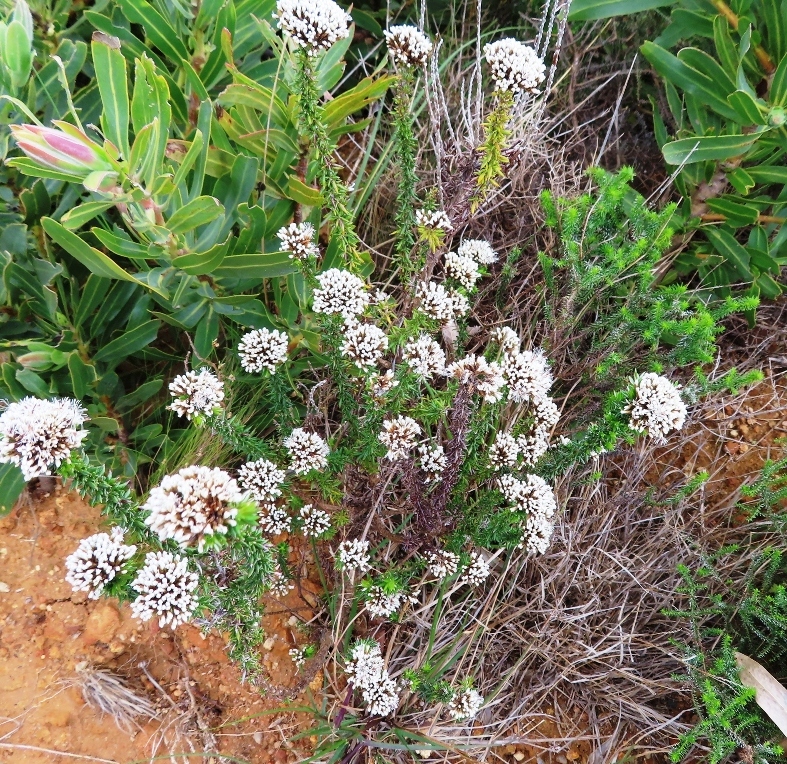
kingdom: Plantae
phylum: Tracheophyta
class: Magnoliopsida
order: Asterales
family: Asteraceae
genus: Metalasia
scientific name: Metalasia densa
